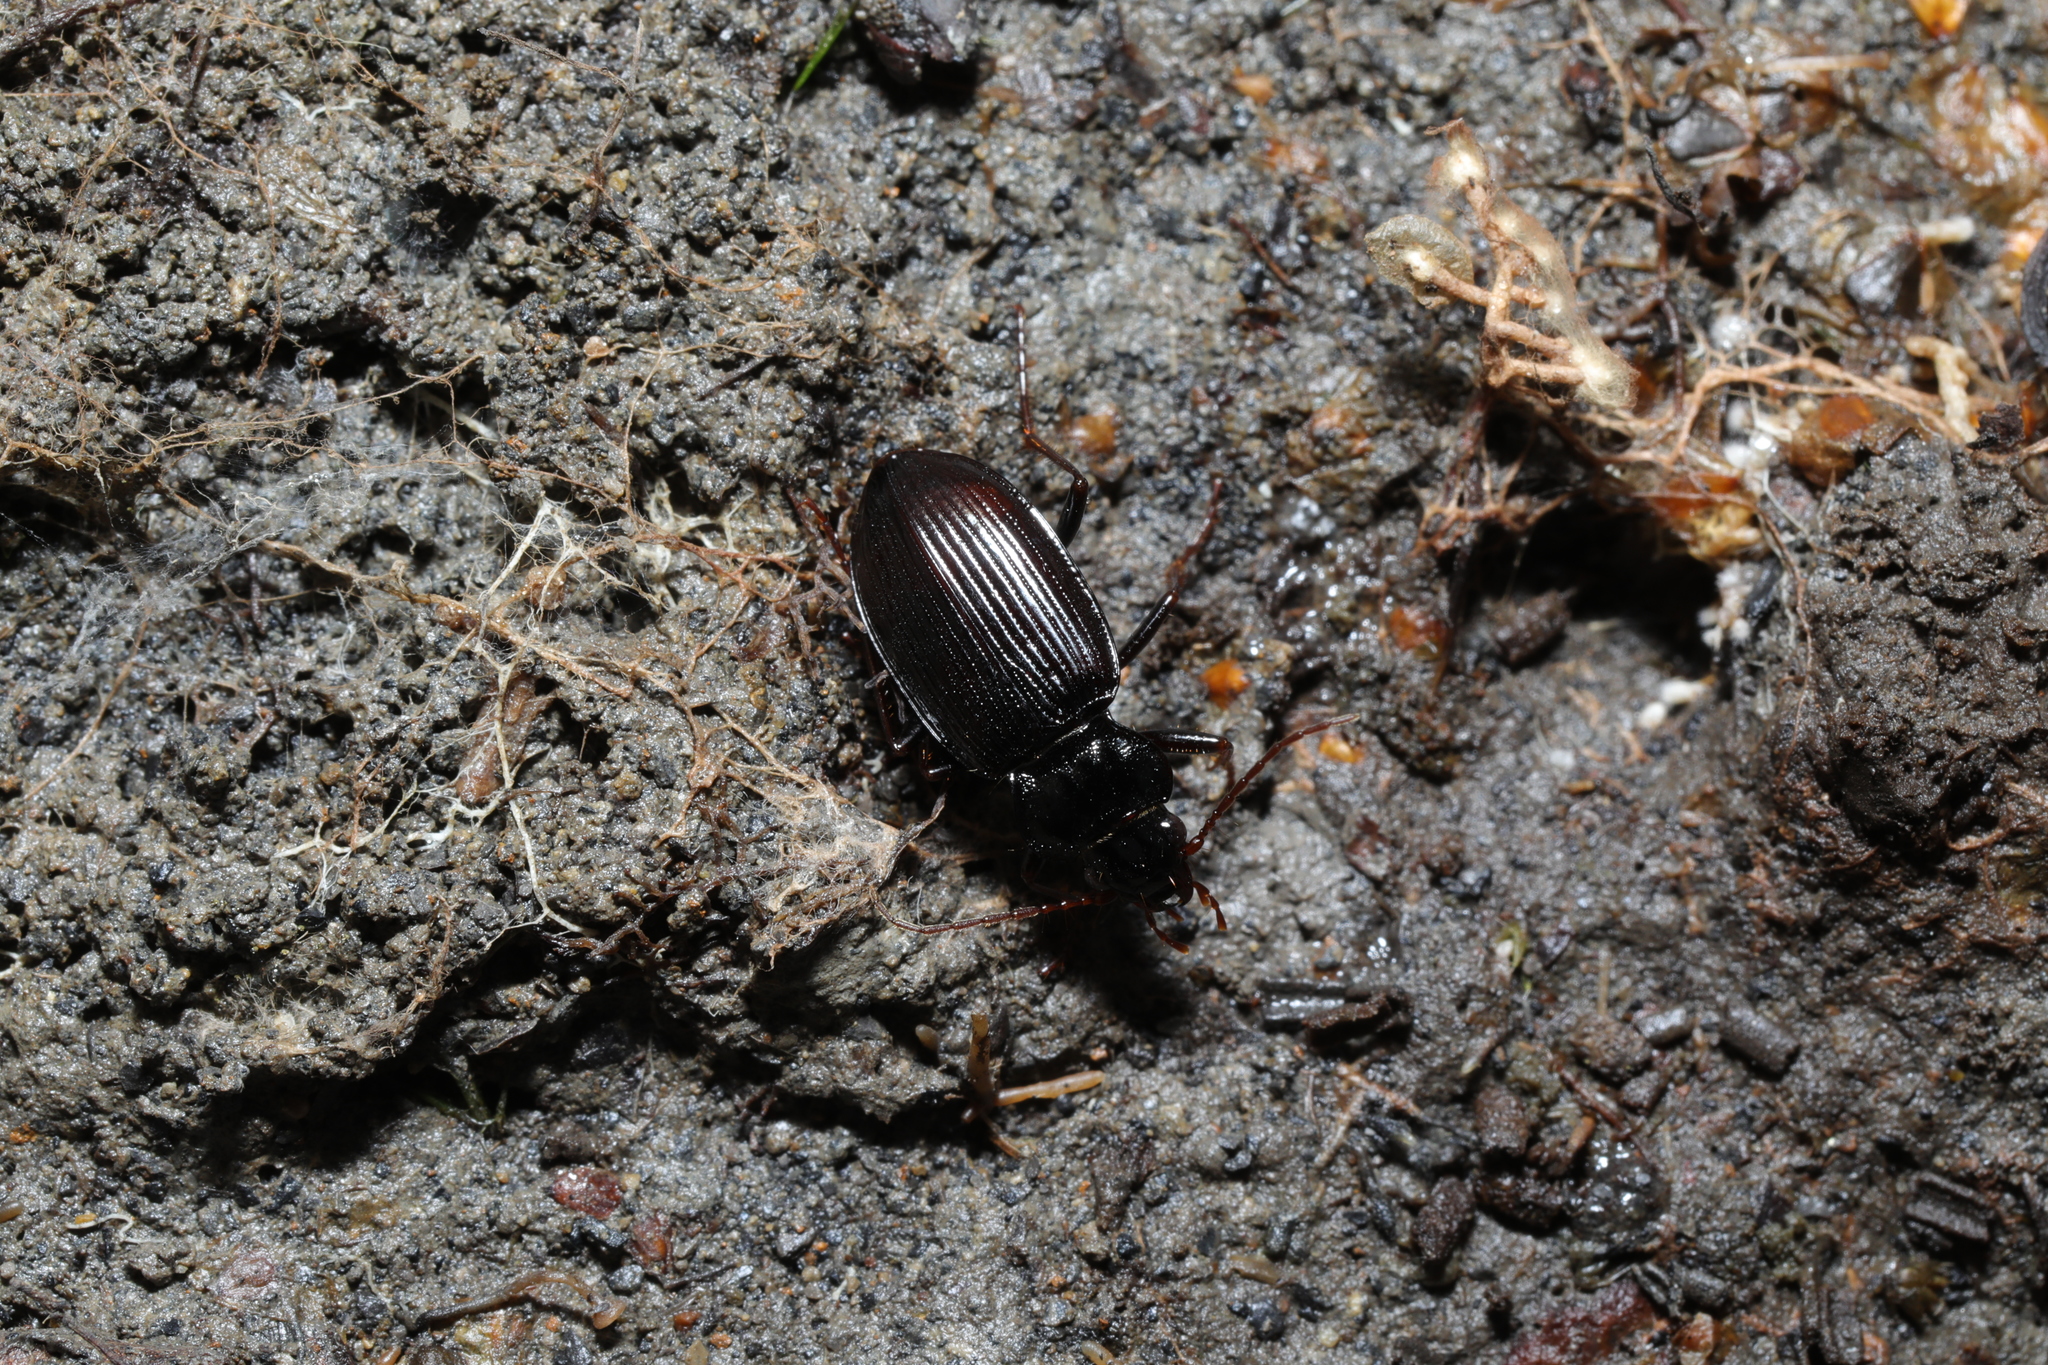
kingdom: Animalia
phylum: Arthropoda
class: Insecta
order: Coleoptera
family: Carabidae
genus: Nebria
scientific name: Nebria brevicollis
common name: Short-necked gazelle beetle
